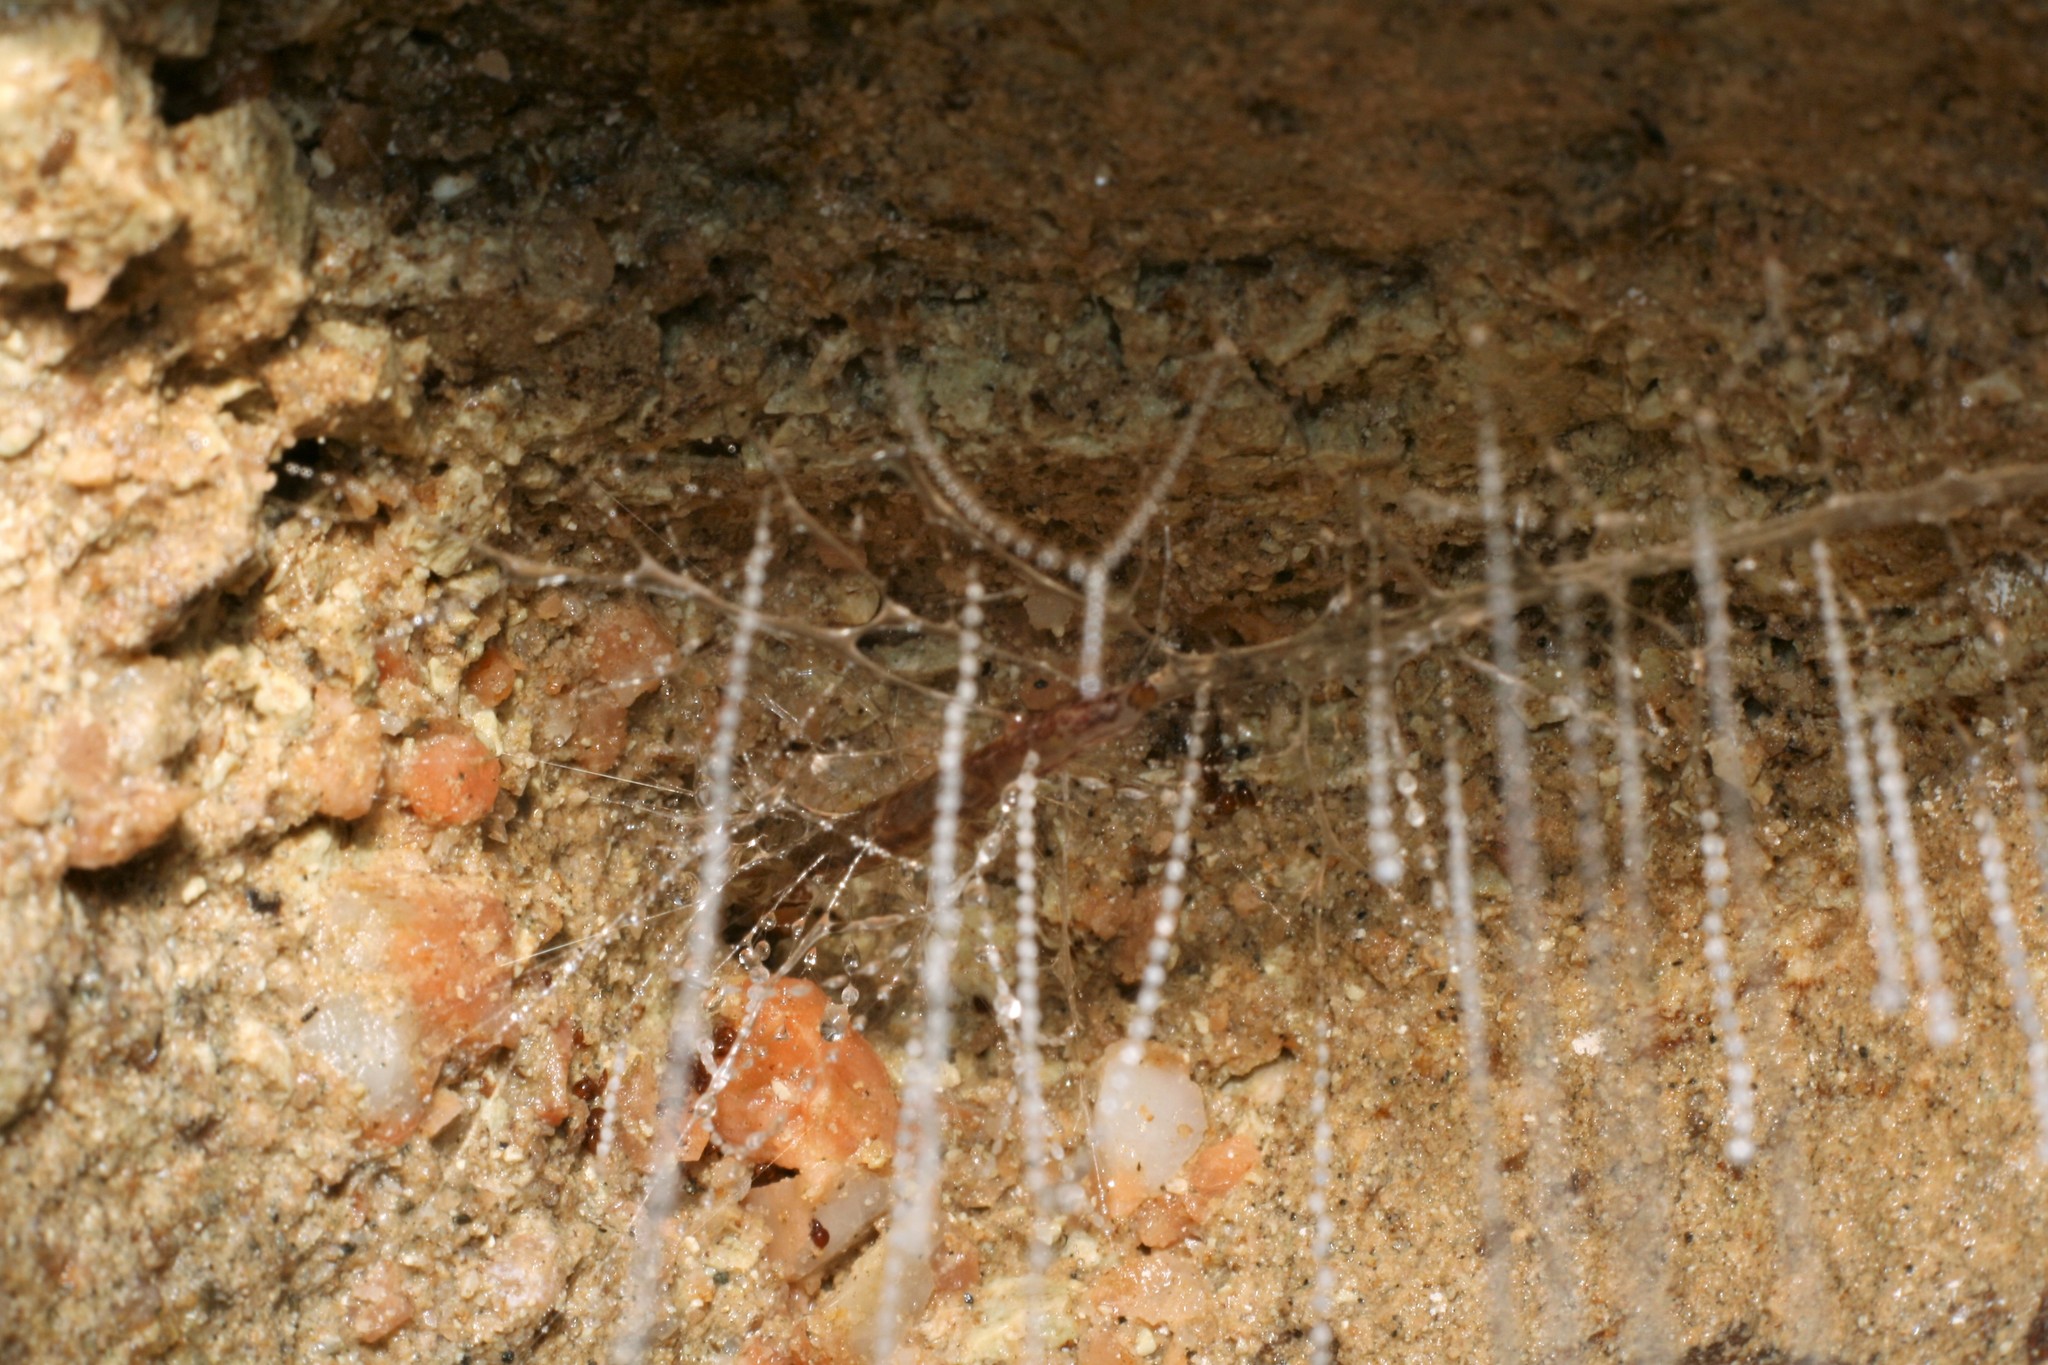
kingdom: Animalia
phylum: Arthropoda
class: Insecta
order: Diptera
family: Keroplatidae
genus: Arachnocampa
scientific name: Arachnocampa luminosa
